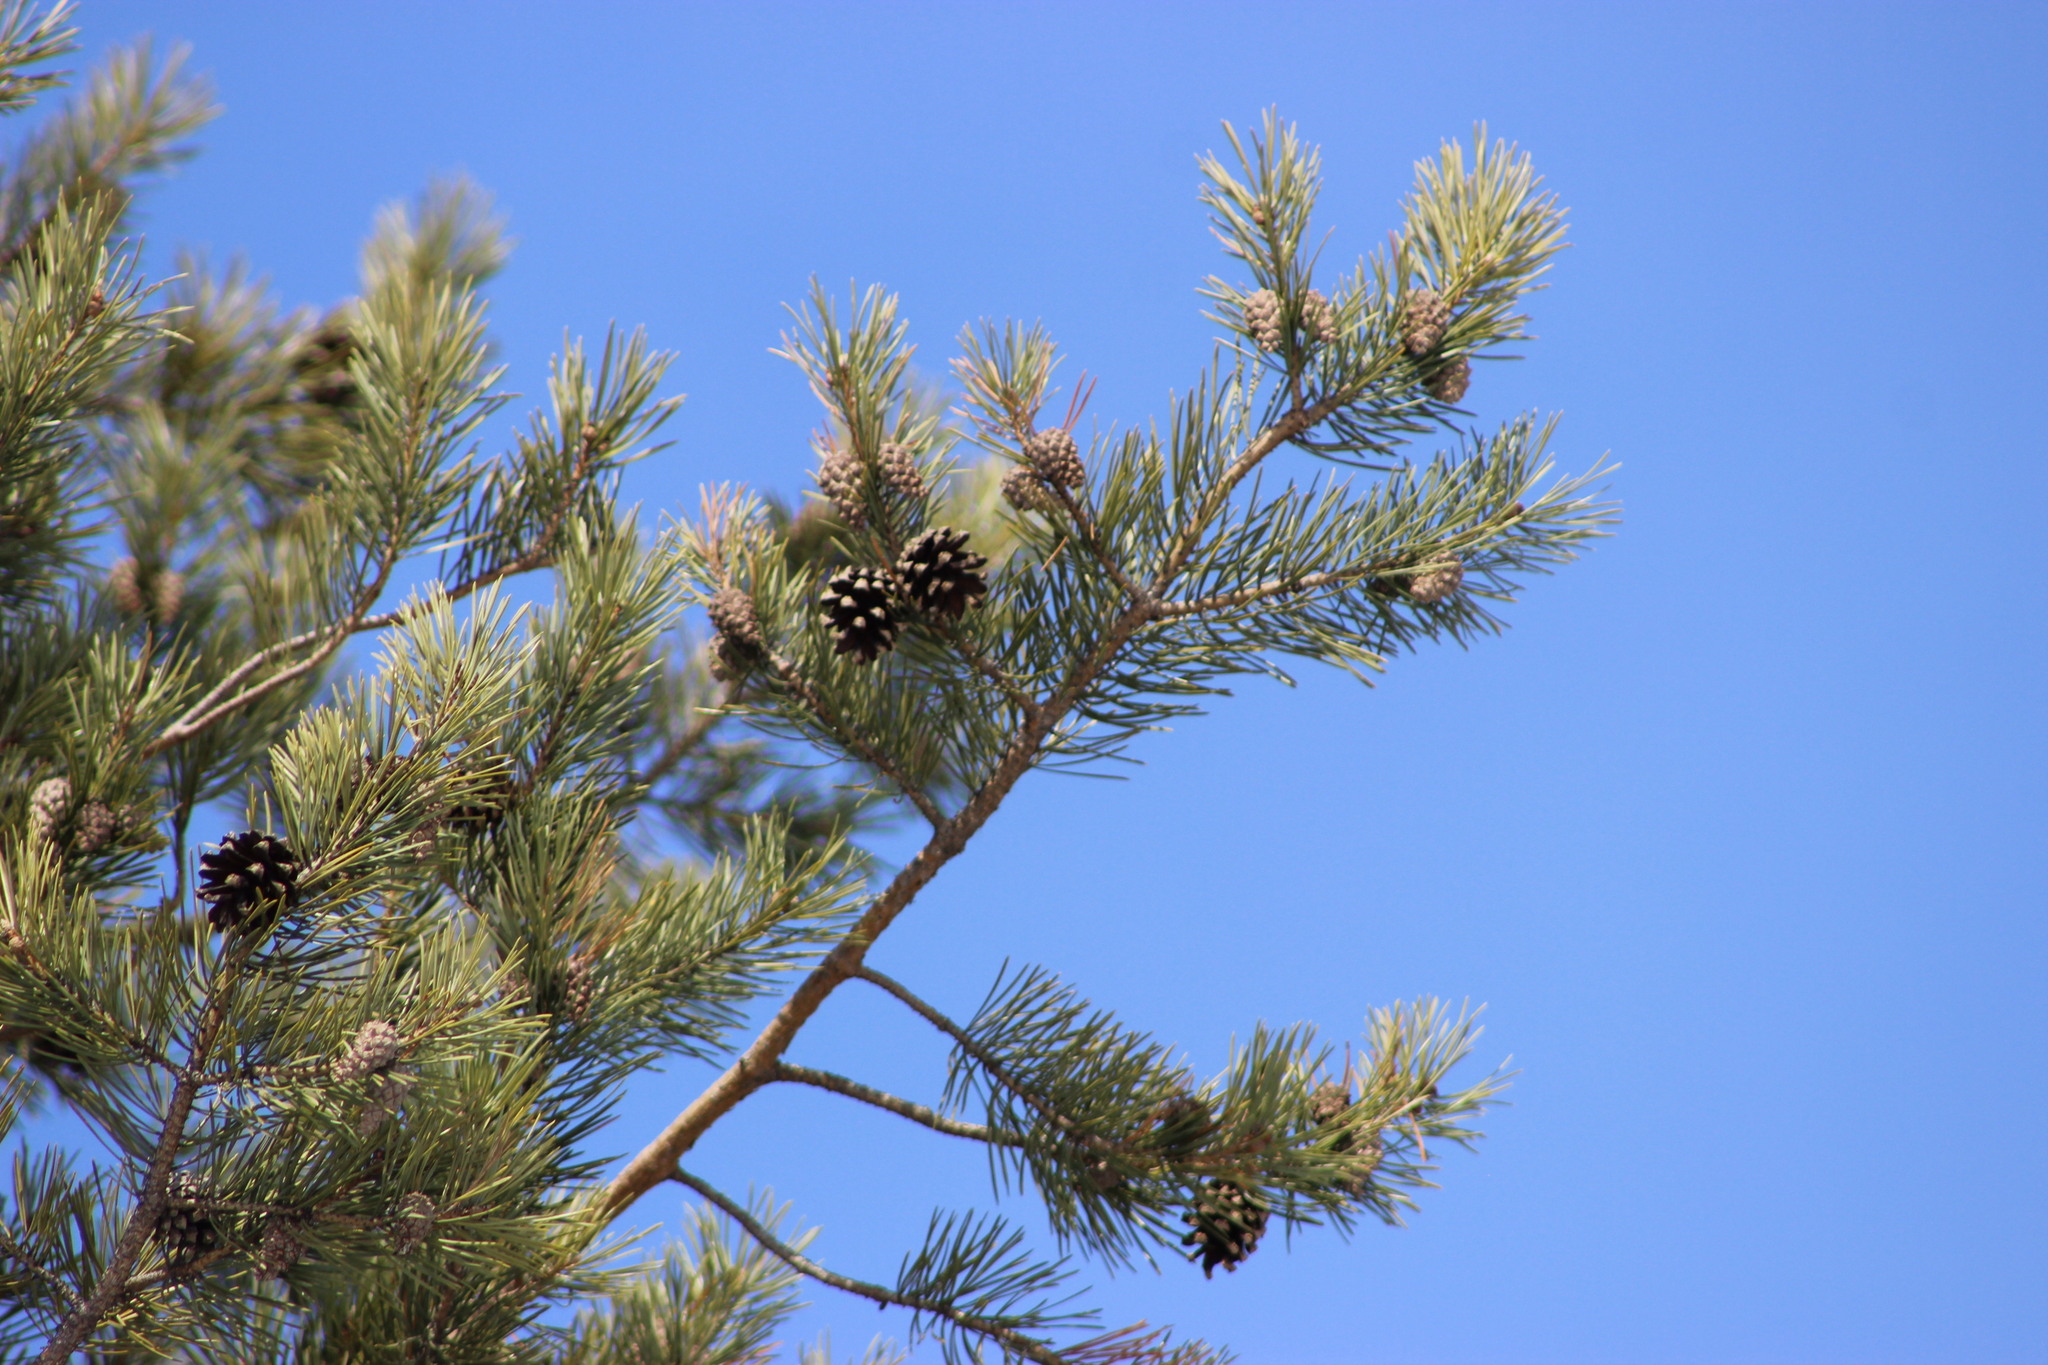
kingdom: Plantae
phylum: Tracheophyta
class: Pinopsida
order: Pinales
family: Pinaceae
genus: Pinus
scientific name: Pinus sylvestris
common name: Scots pine
